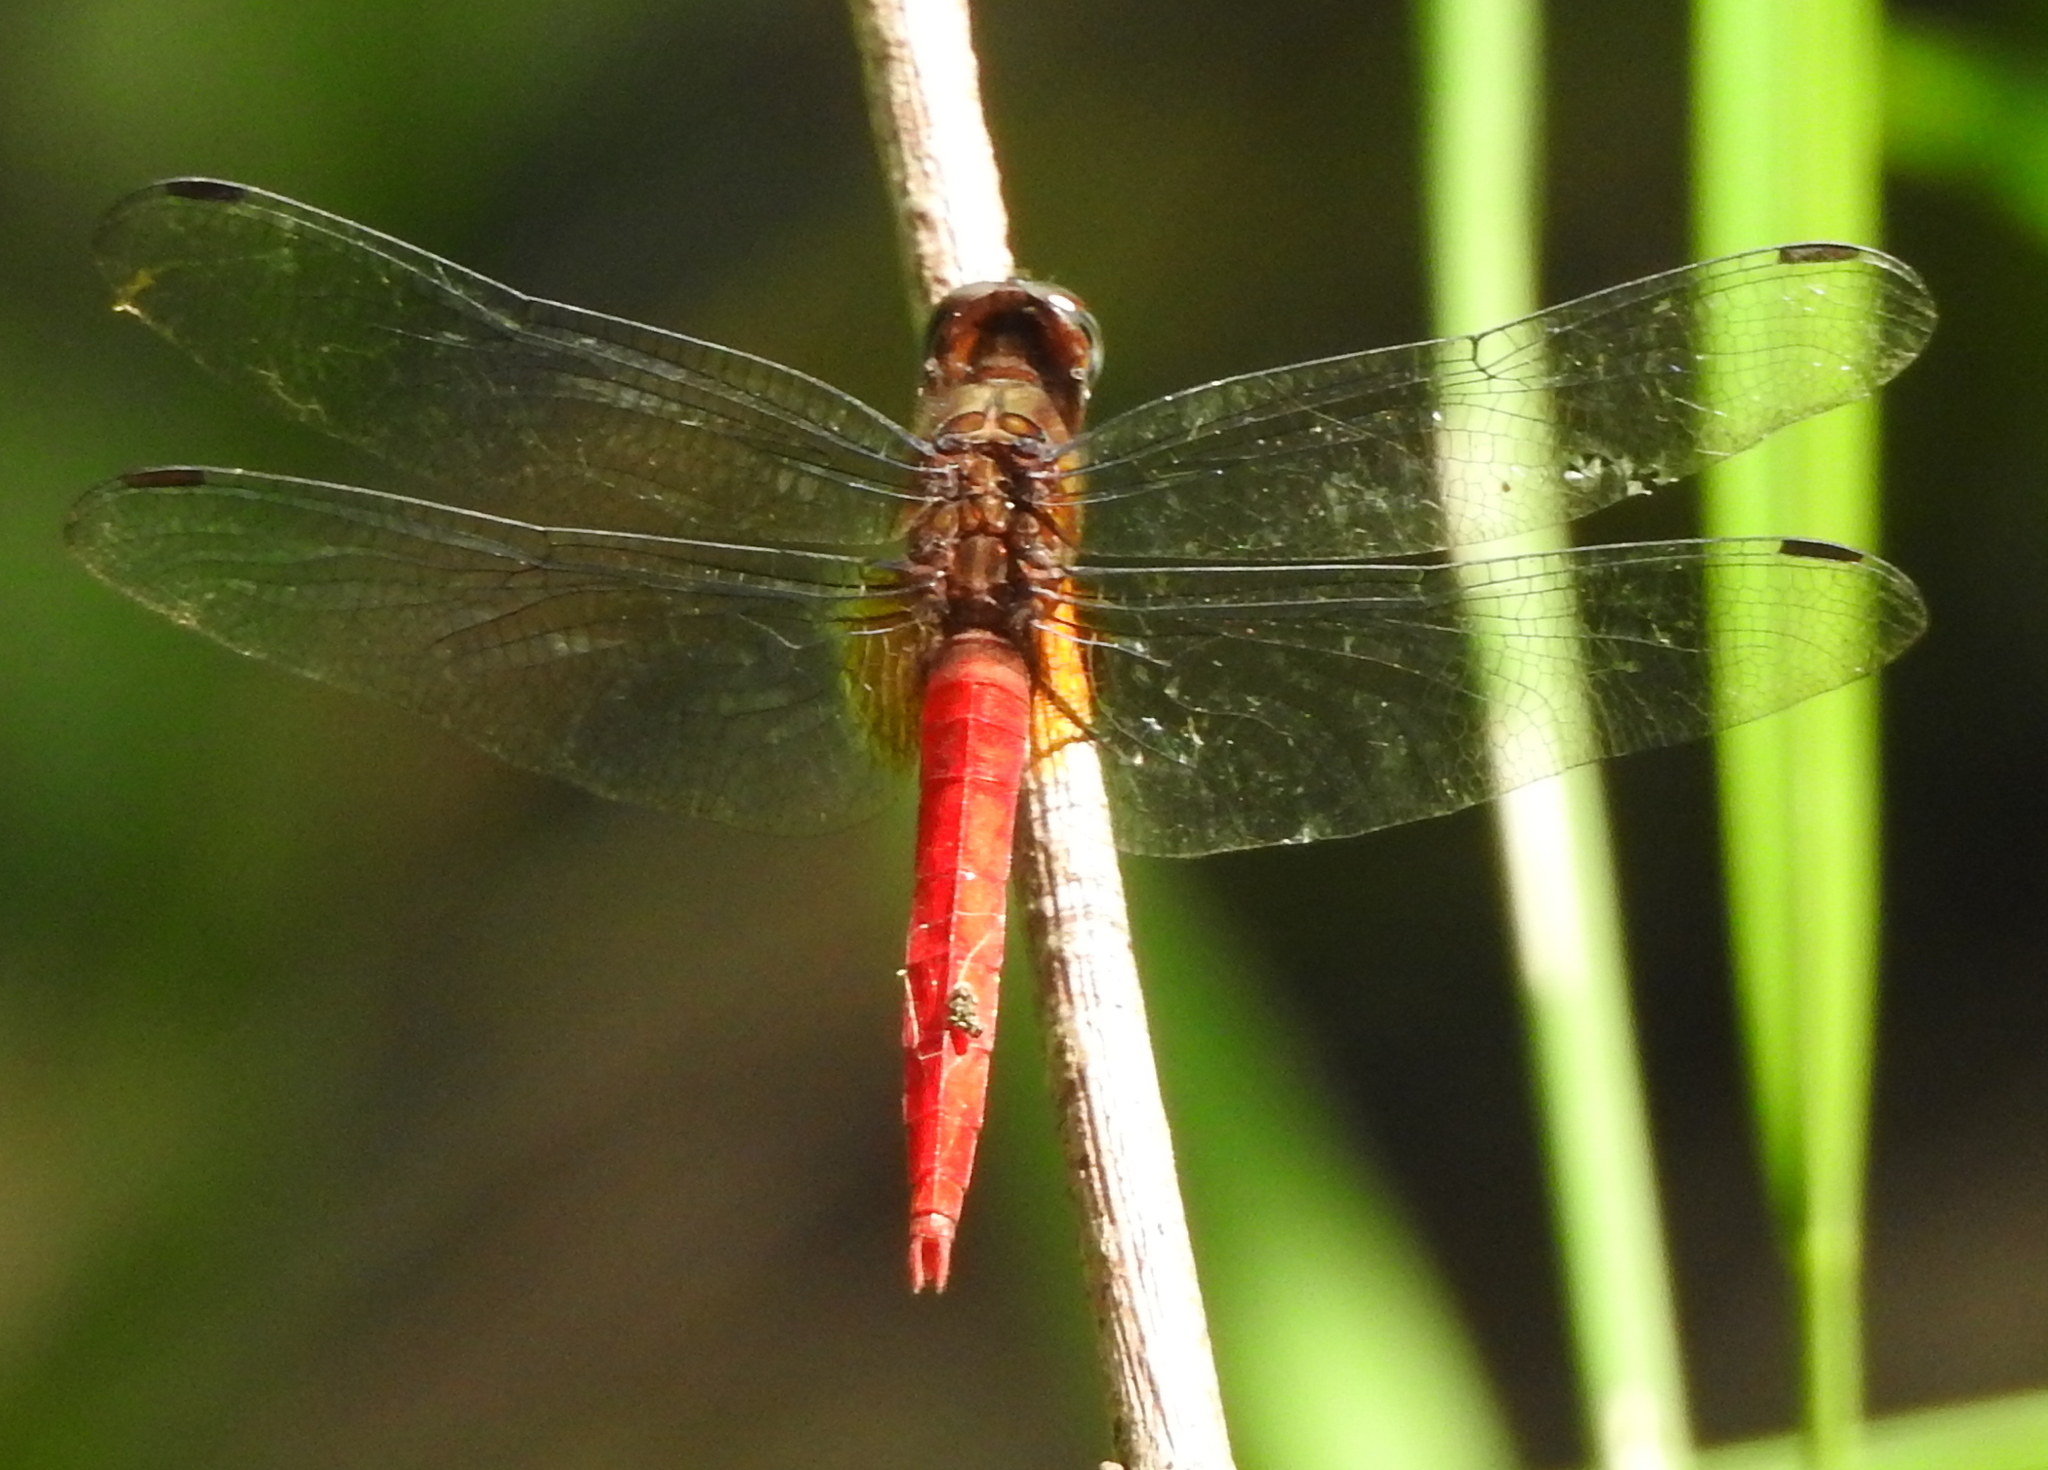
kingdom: Animalia
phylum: Arthropoda
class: Insecta
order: Odonata
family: Libellulidae
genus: Orthetrum
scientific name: Orthetrum chrysis
